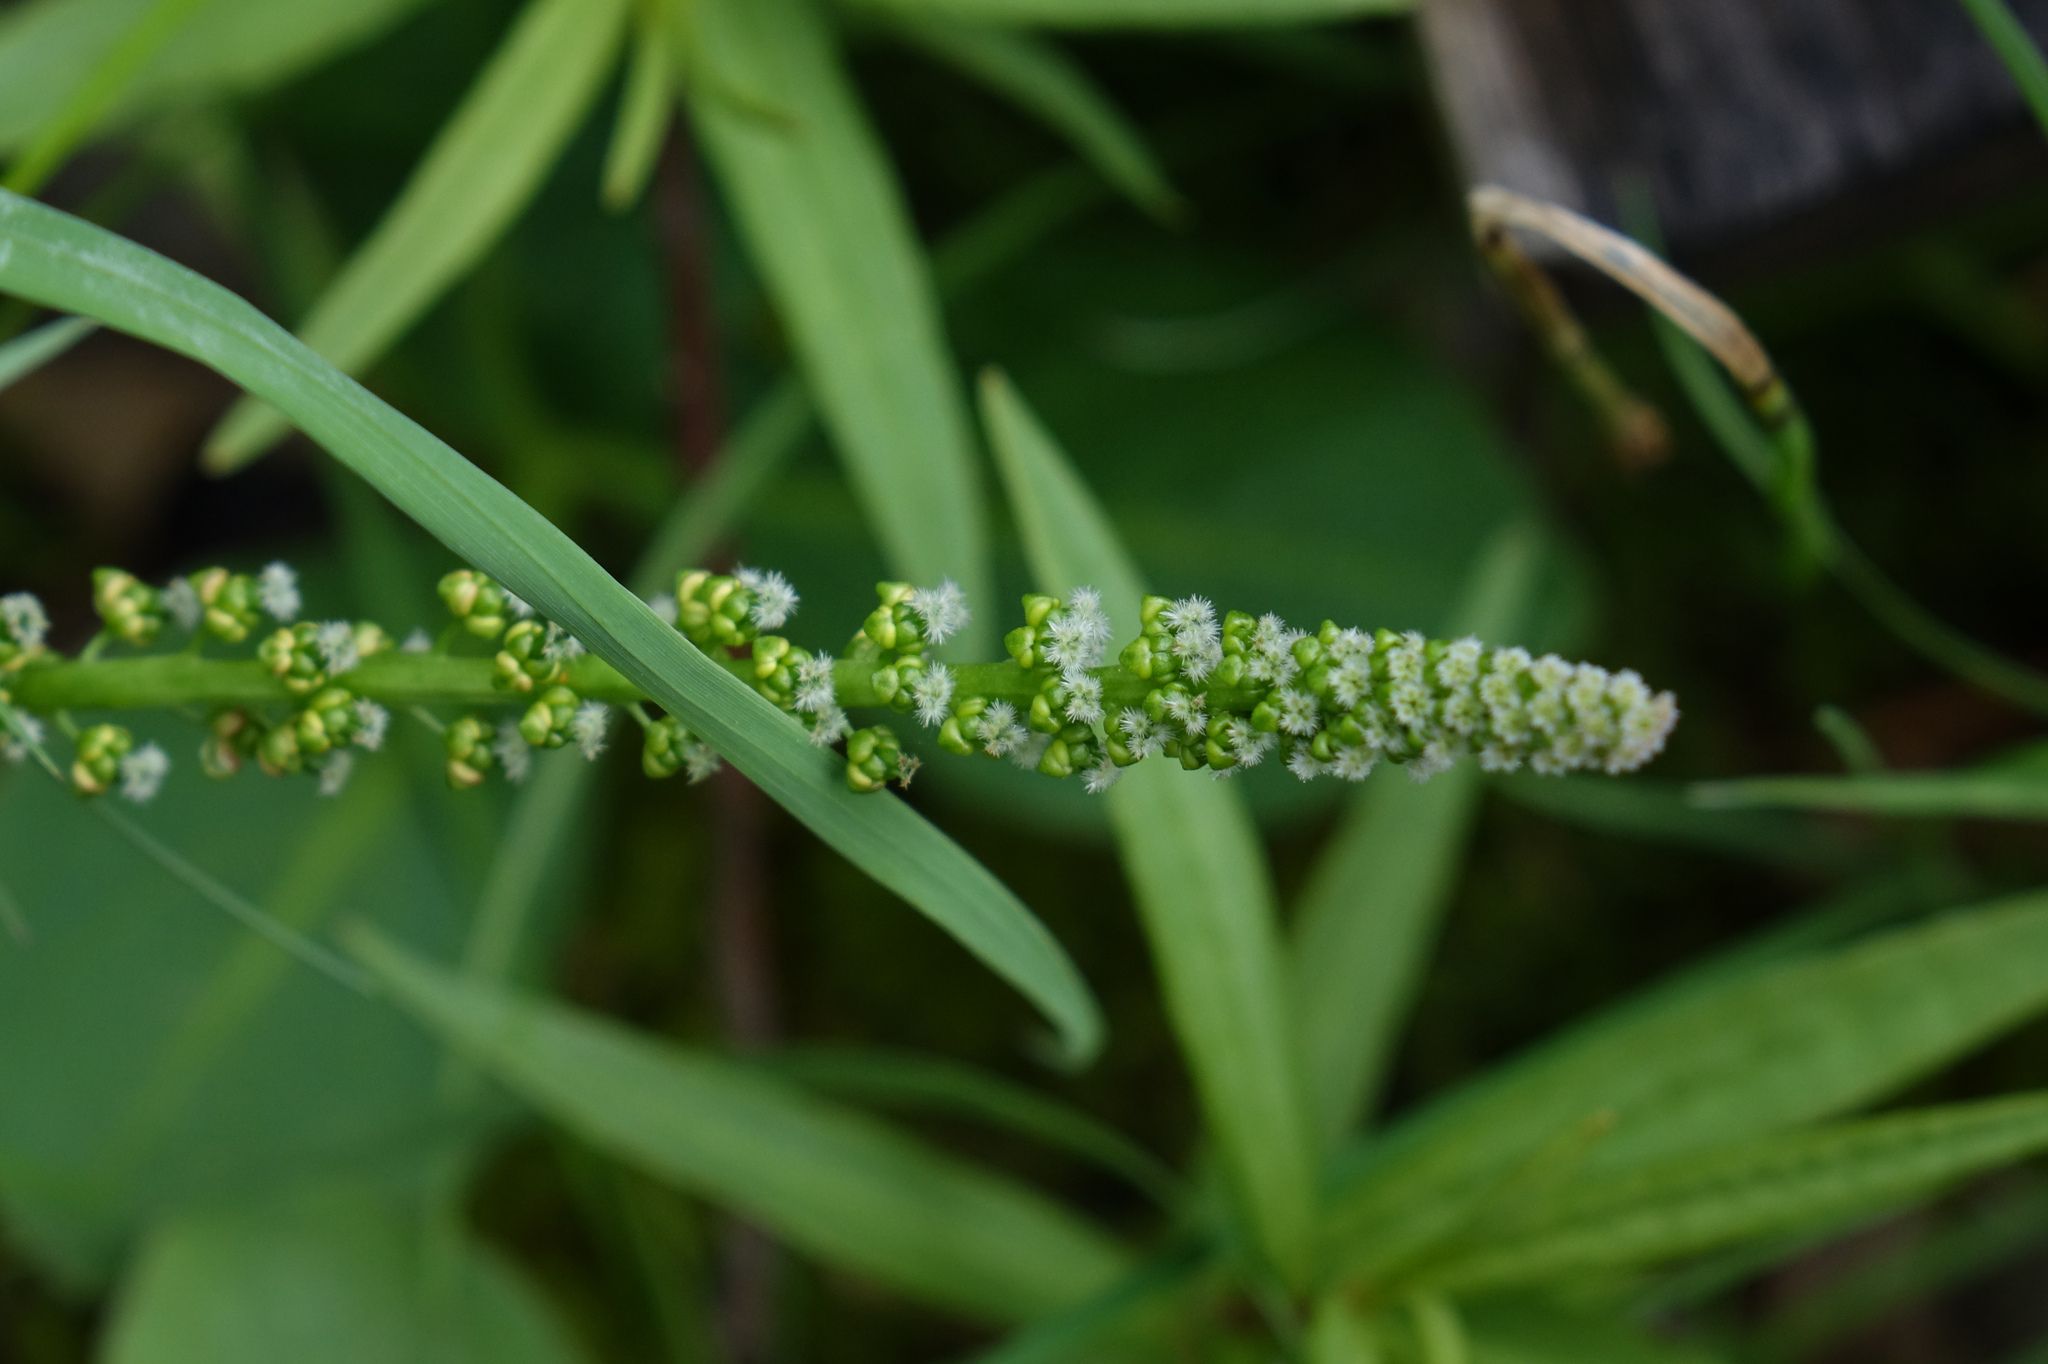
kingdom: Plantae
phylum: Tracheophyta
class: Liliopsida
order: Alismatales
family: Juncaginaceae
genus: Triglochin
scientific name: Triglochin maritima
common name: Sea arrowgrass
